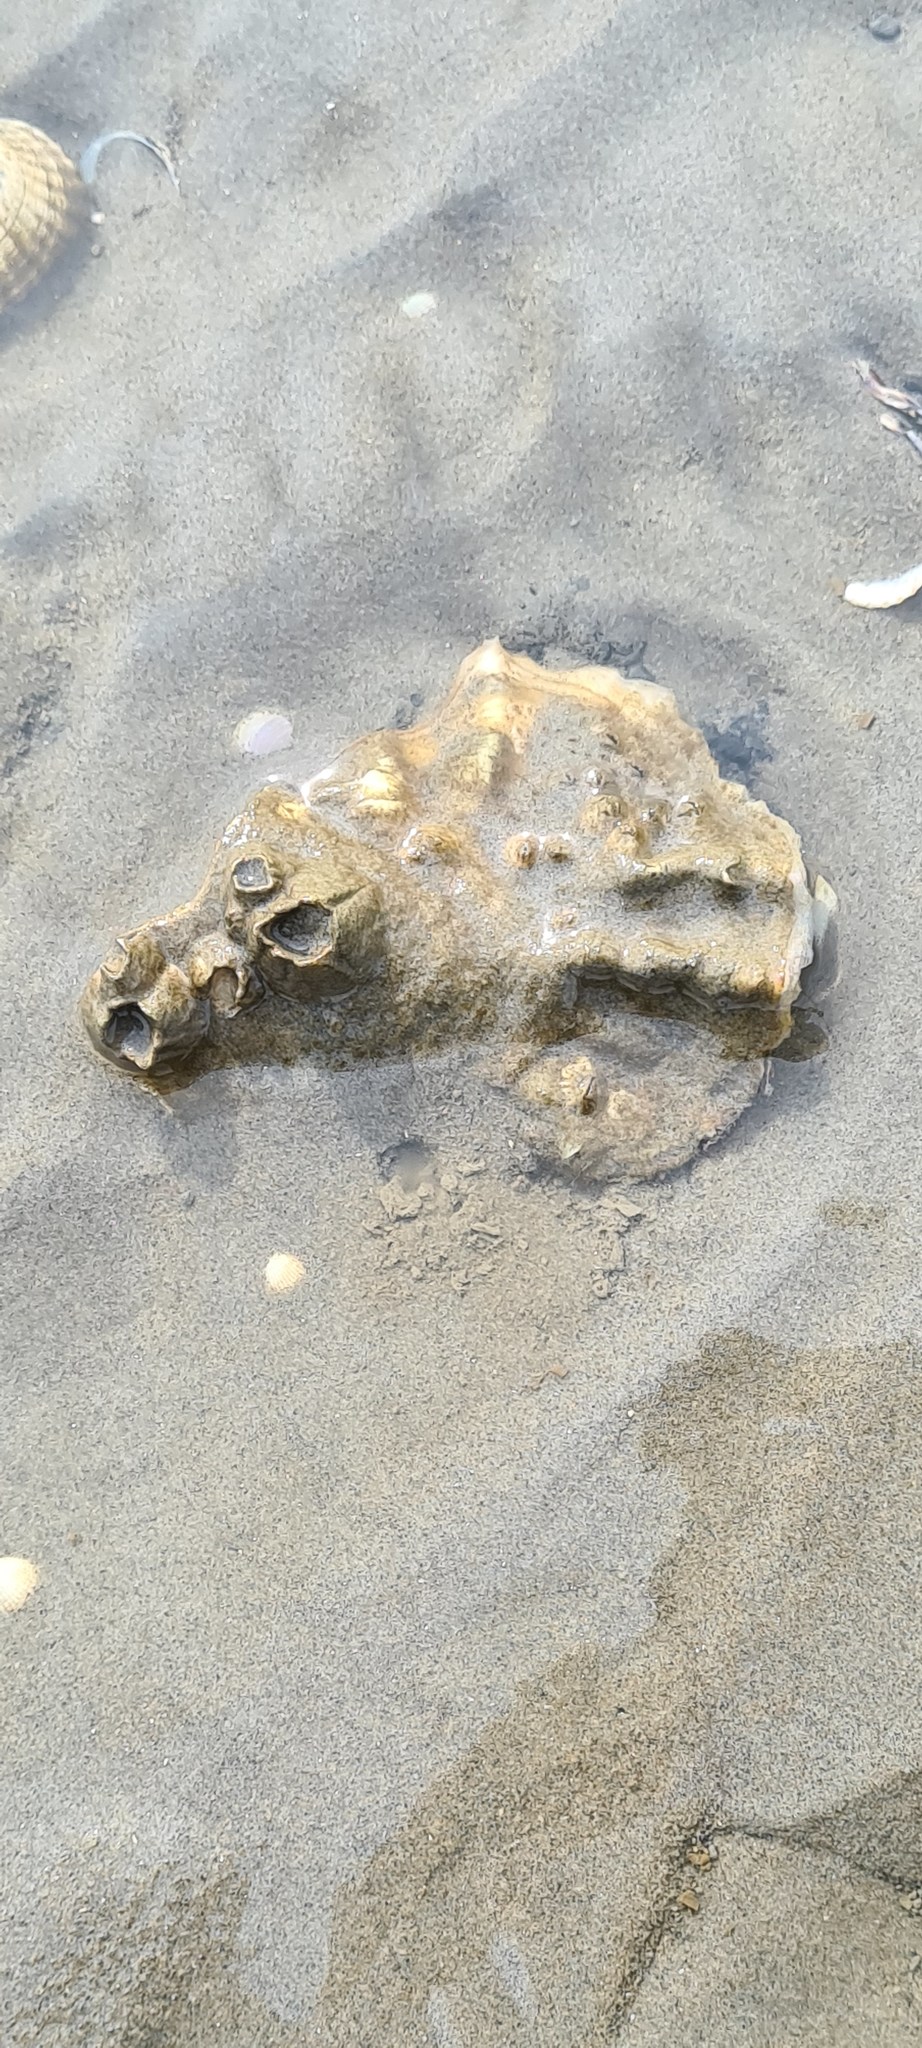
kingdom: Animalia
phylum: Mollusca
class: Bivalvia
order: Ostreida
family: Ostreidae
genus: Magallana
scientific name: Magallana gigas
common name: Pacific oyster
